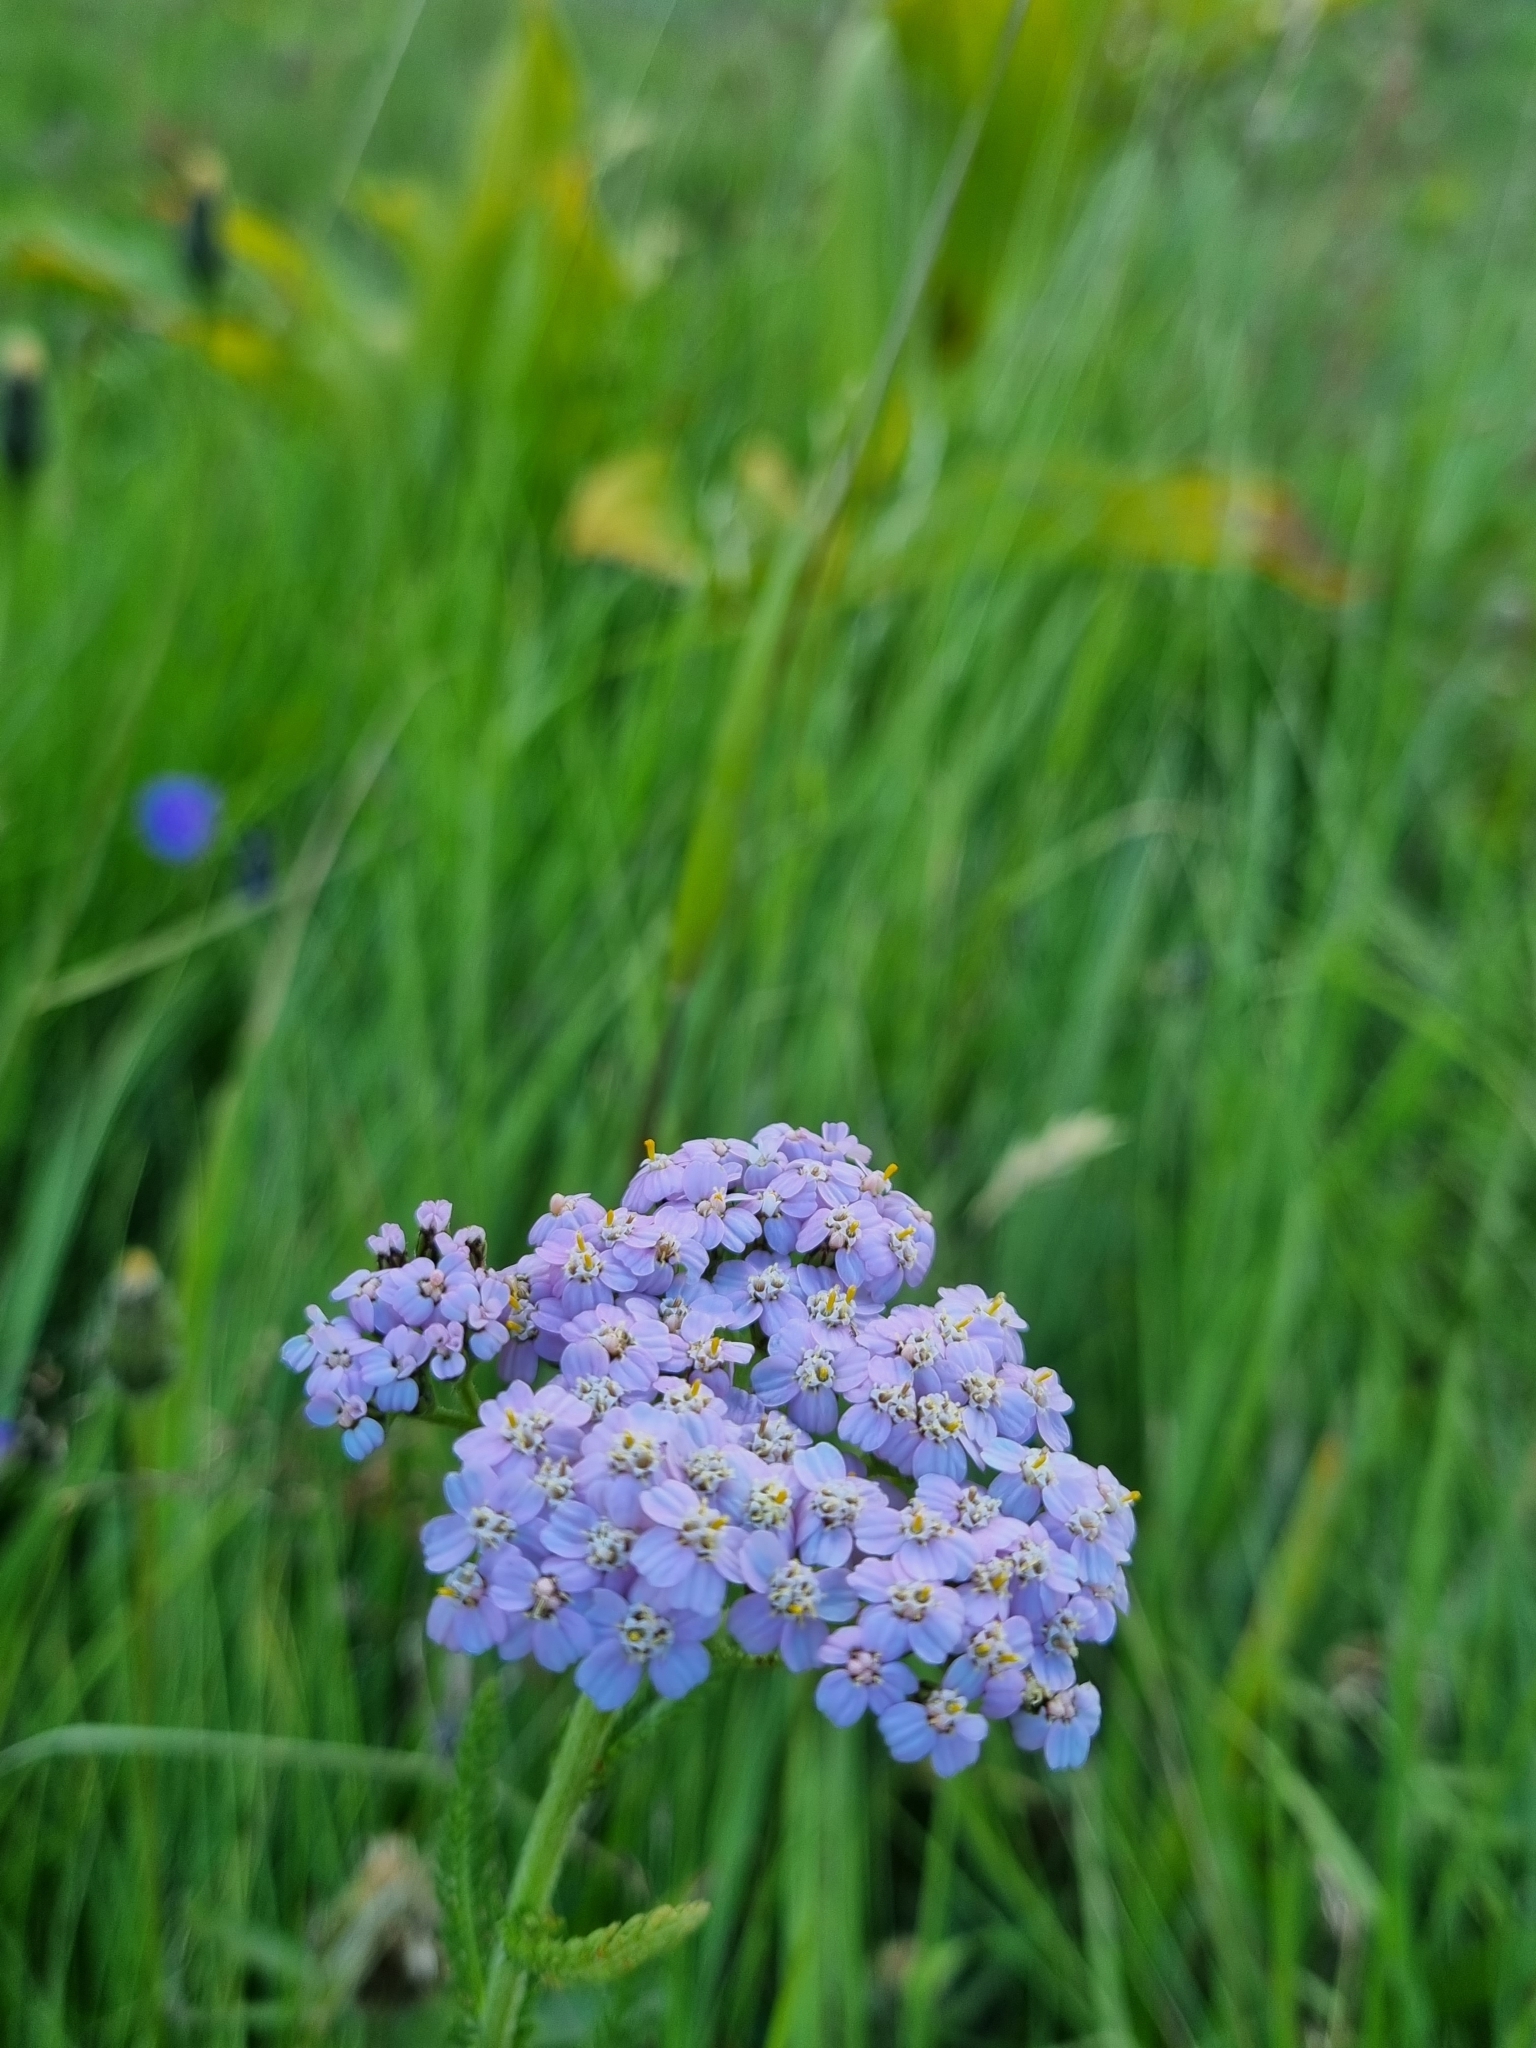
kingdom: Plantae
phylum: Tracheophyta
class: Magnoliopsida
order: Asterales
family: Asteraceae
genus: Achillea
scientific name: Achillea millefolium
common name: Yarrow
